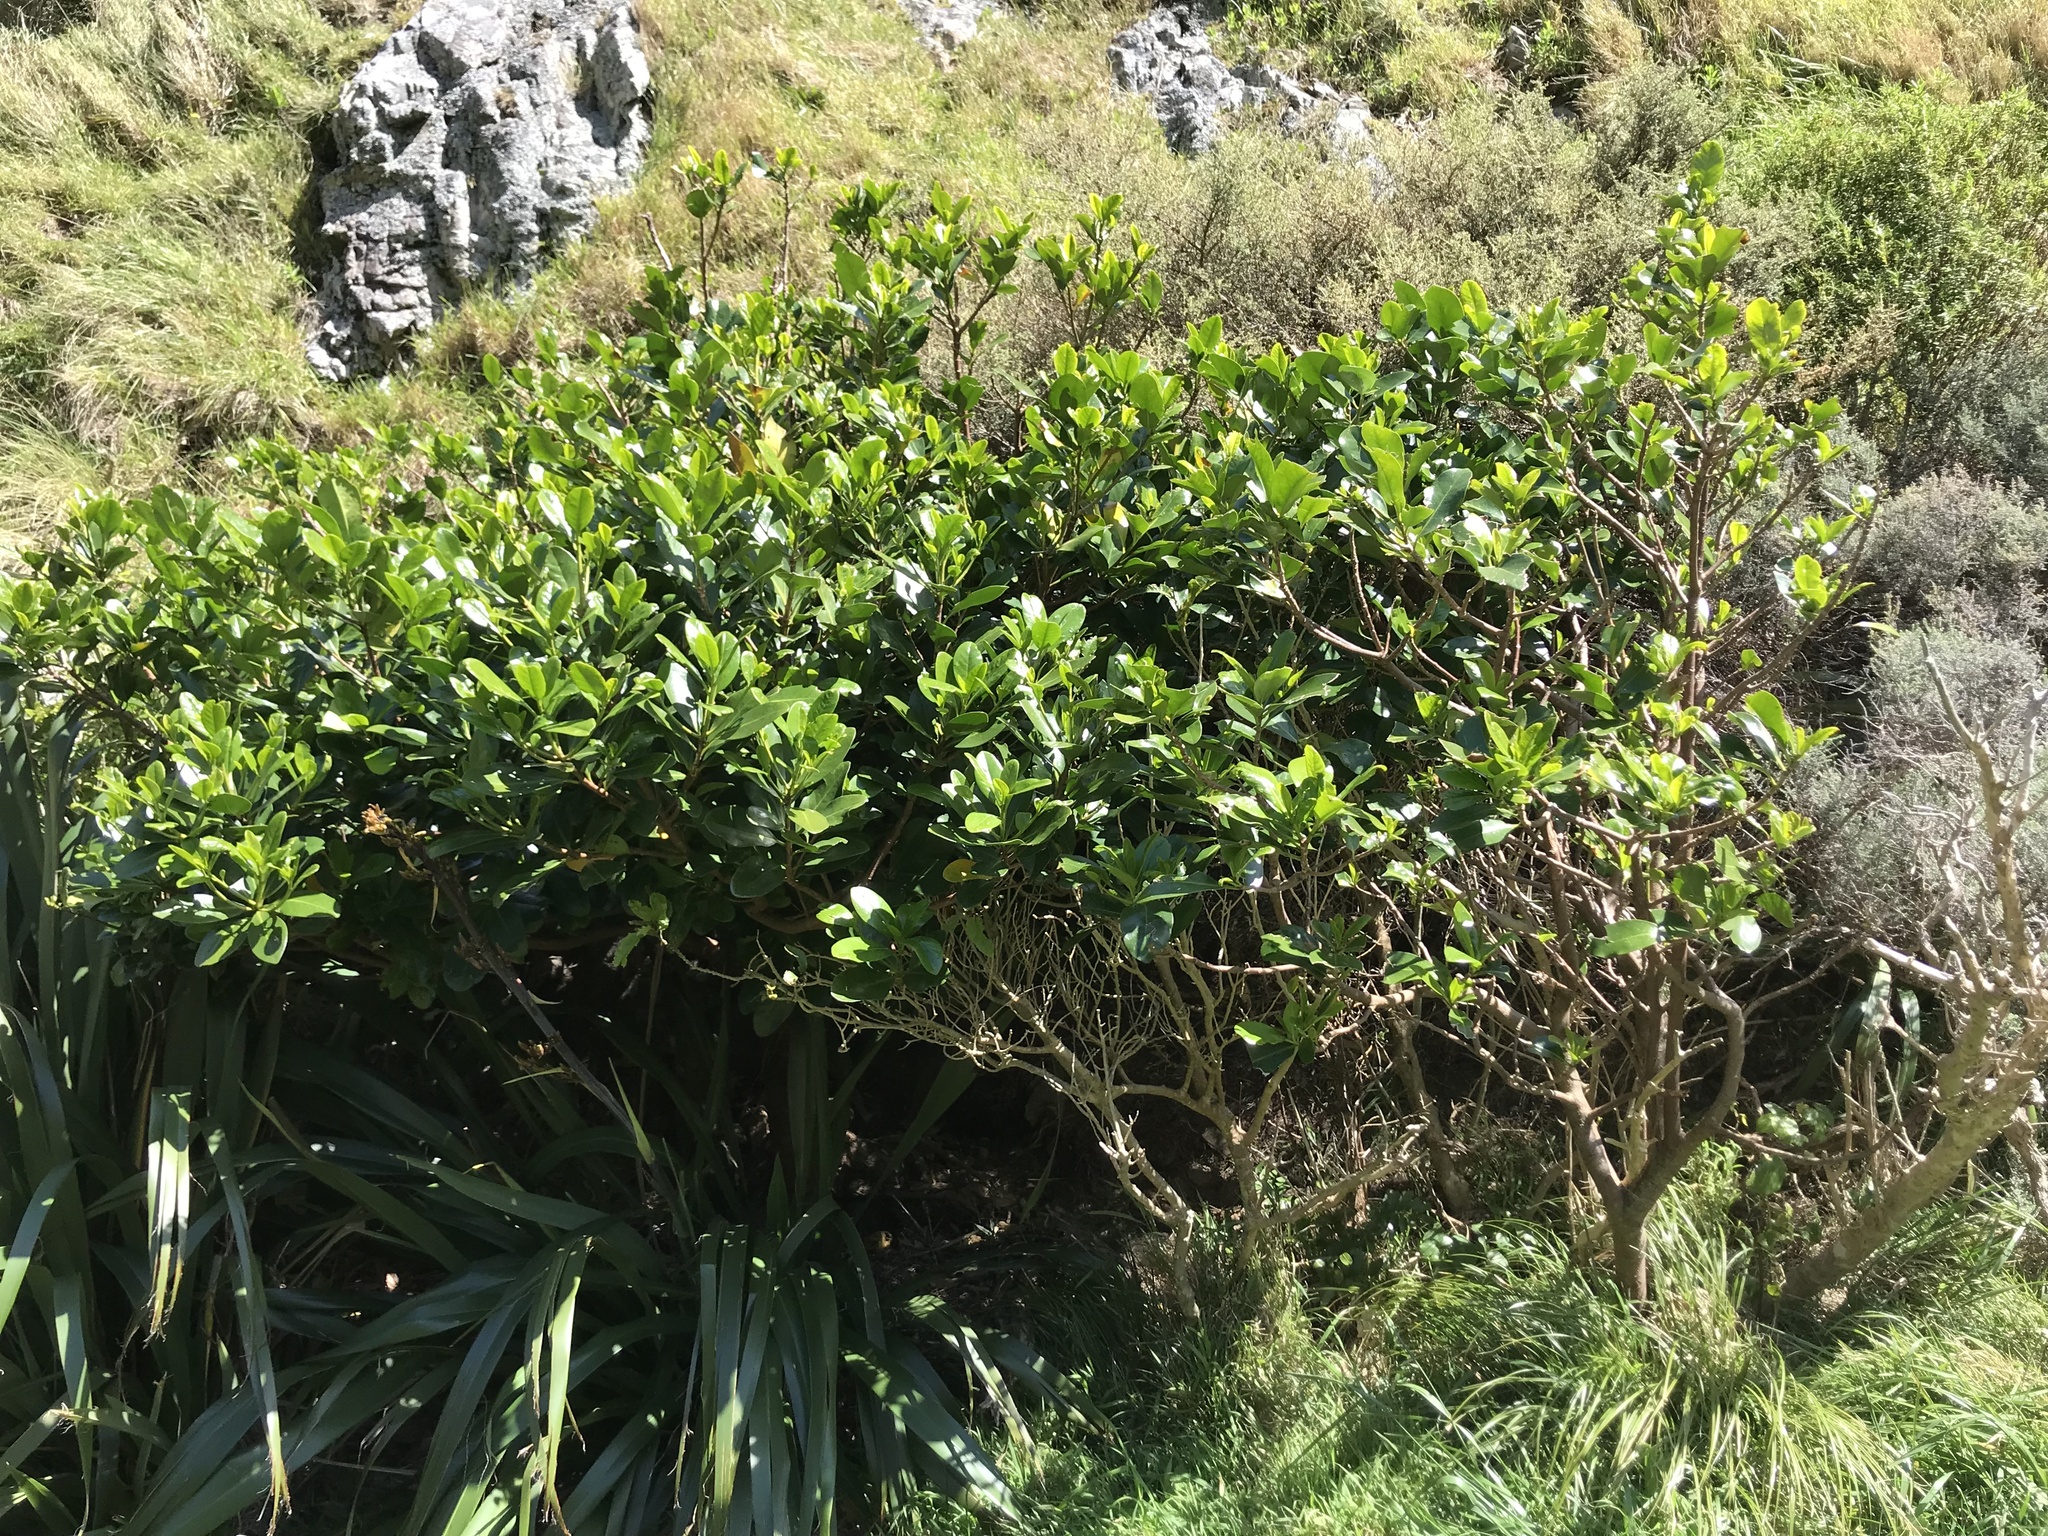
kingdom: Plantae
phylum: Tracheophyta
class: Magnoliopsida
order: Cucurbitales
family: Corynocarpaceae
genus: Corynocarpus
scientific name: Corynocarpus laevigatus
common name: New zealand laurel
